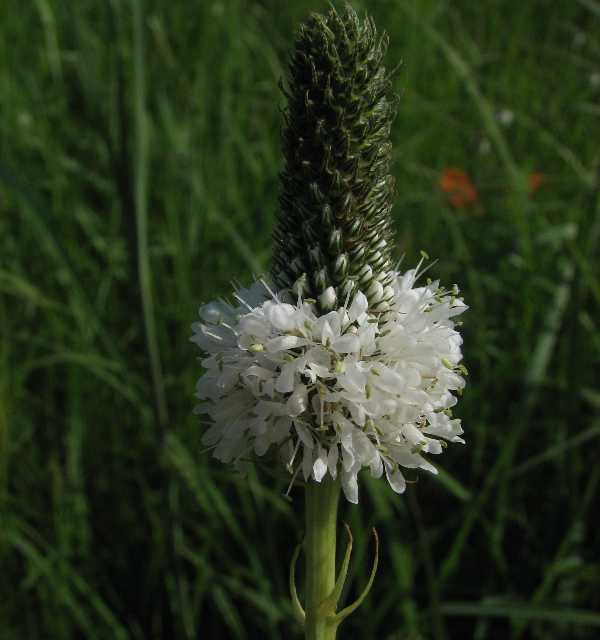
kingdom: Plantae
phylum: Tracheophyta
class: Magnoliopsida
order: Fabales
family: Fabaceae
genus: Dalea
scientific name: Dalea candida
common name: White prairie-clover
